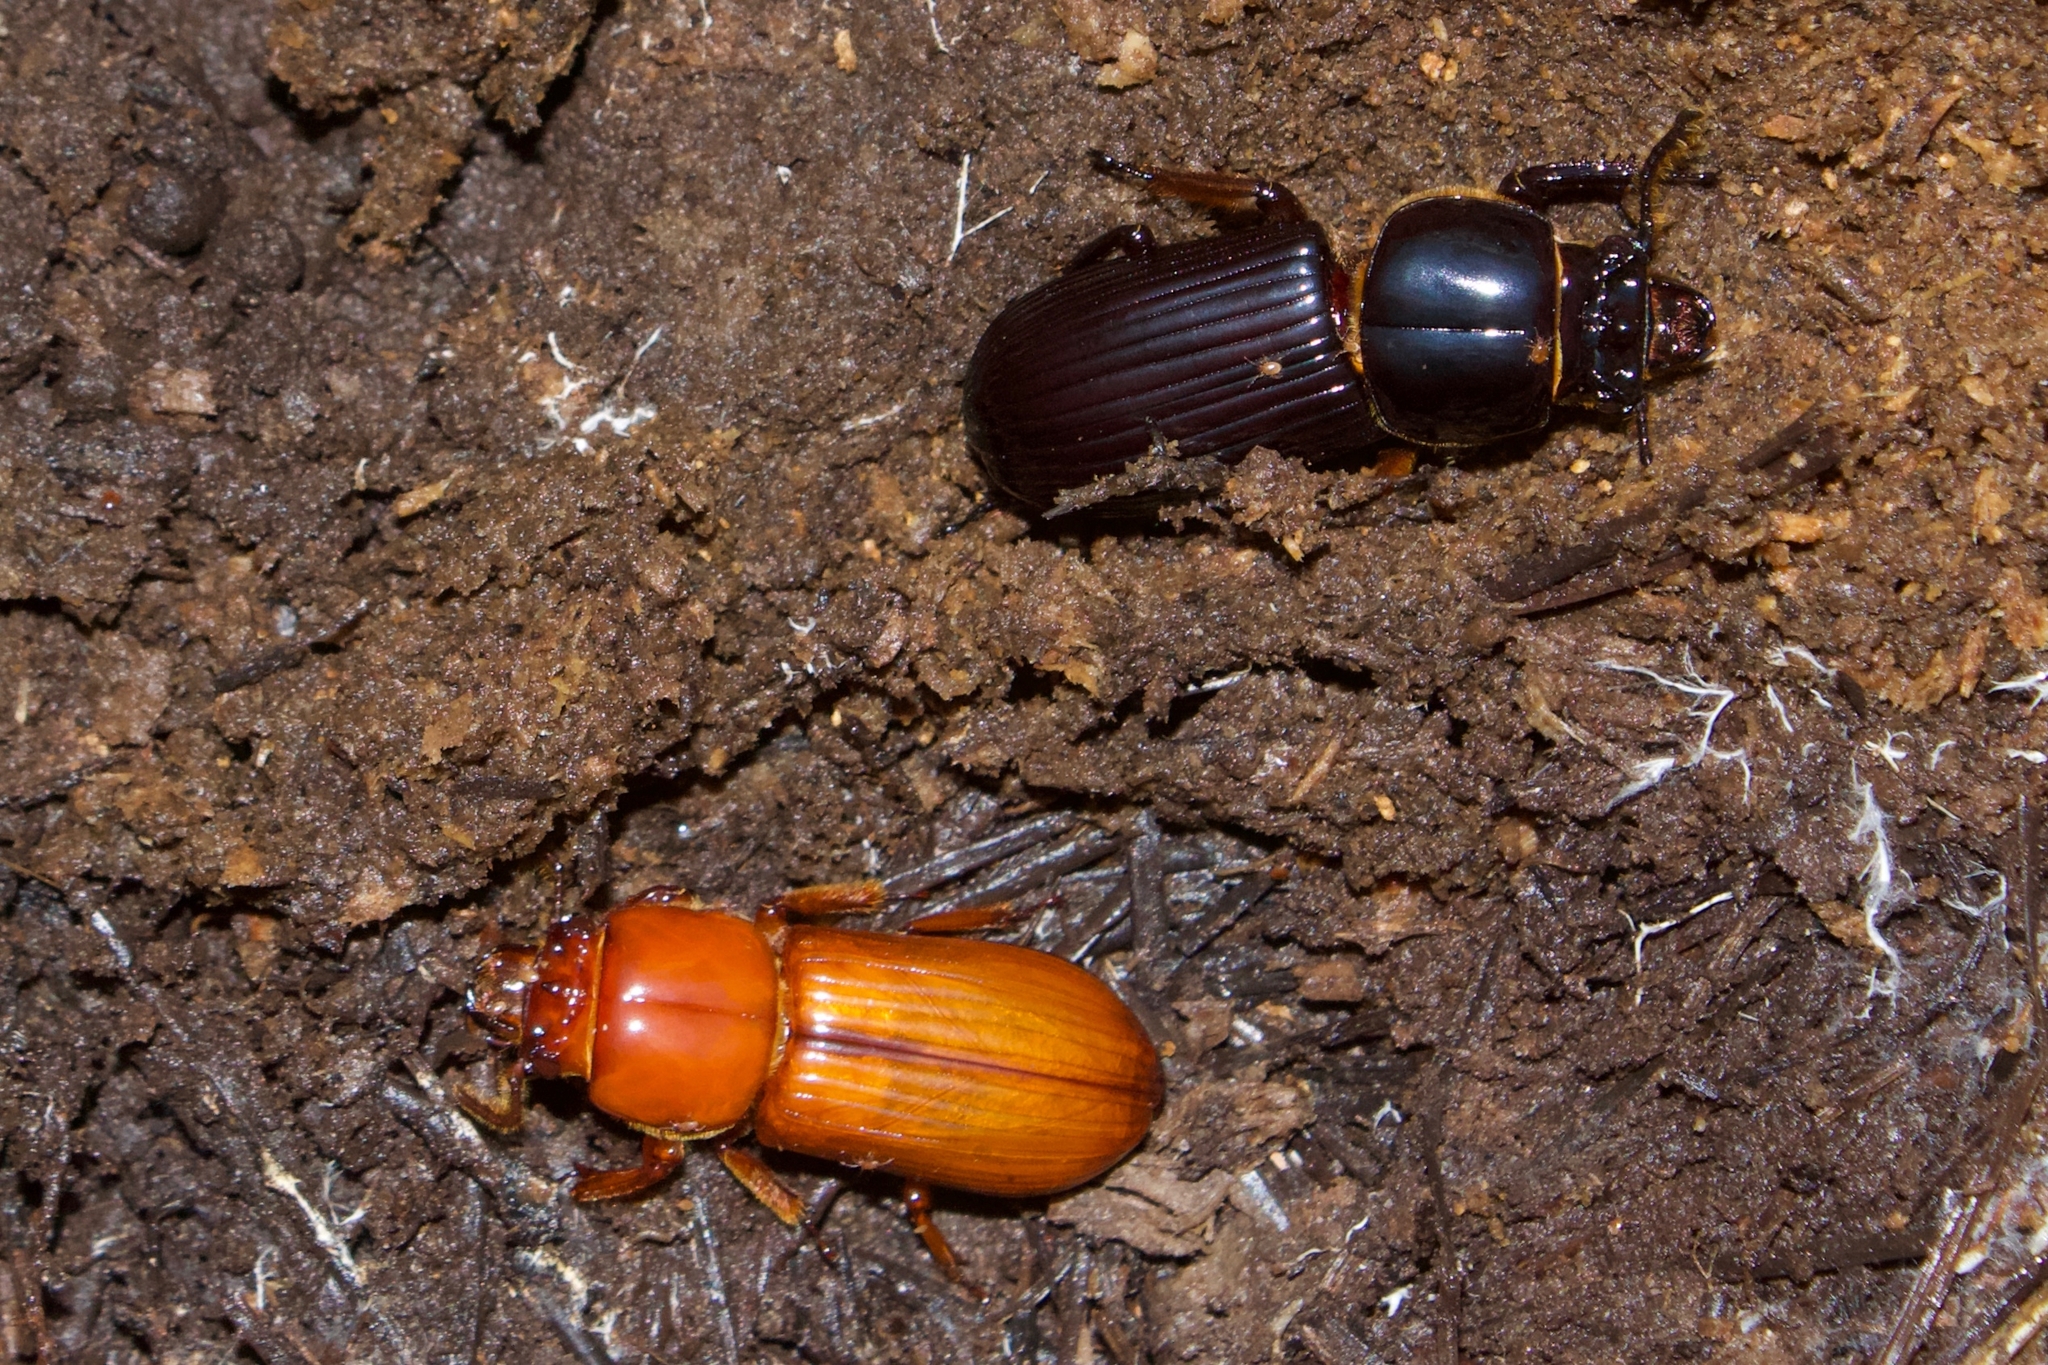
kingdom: Animalia
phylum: Arthropoda
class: Insecta
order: Coleoptera
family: Passalidae
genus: Odontotaenius
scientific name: Odontotaenius disjunctus
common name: Patent leather beetle
